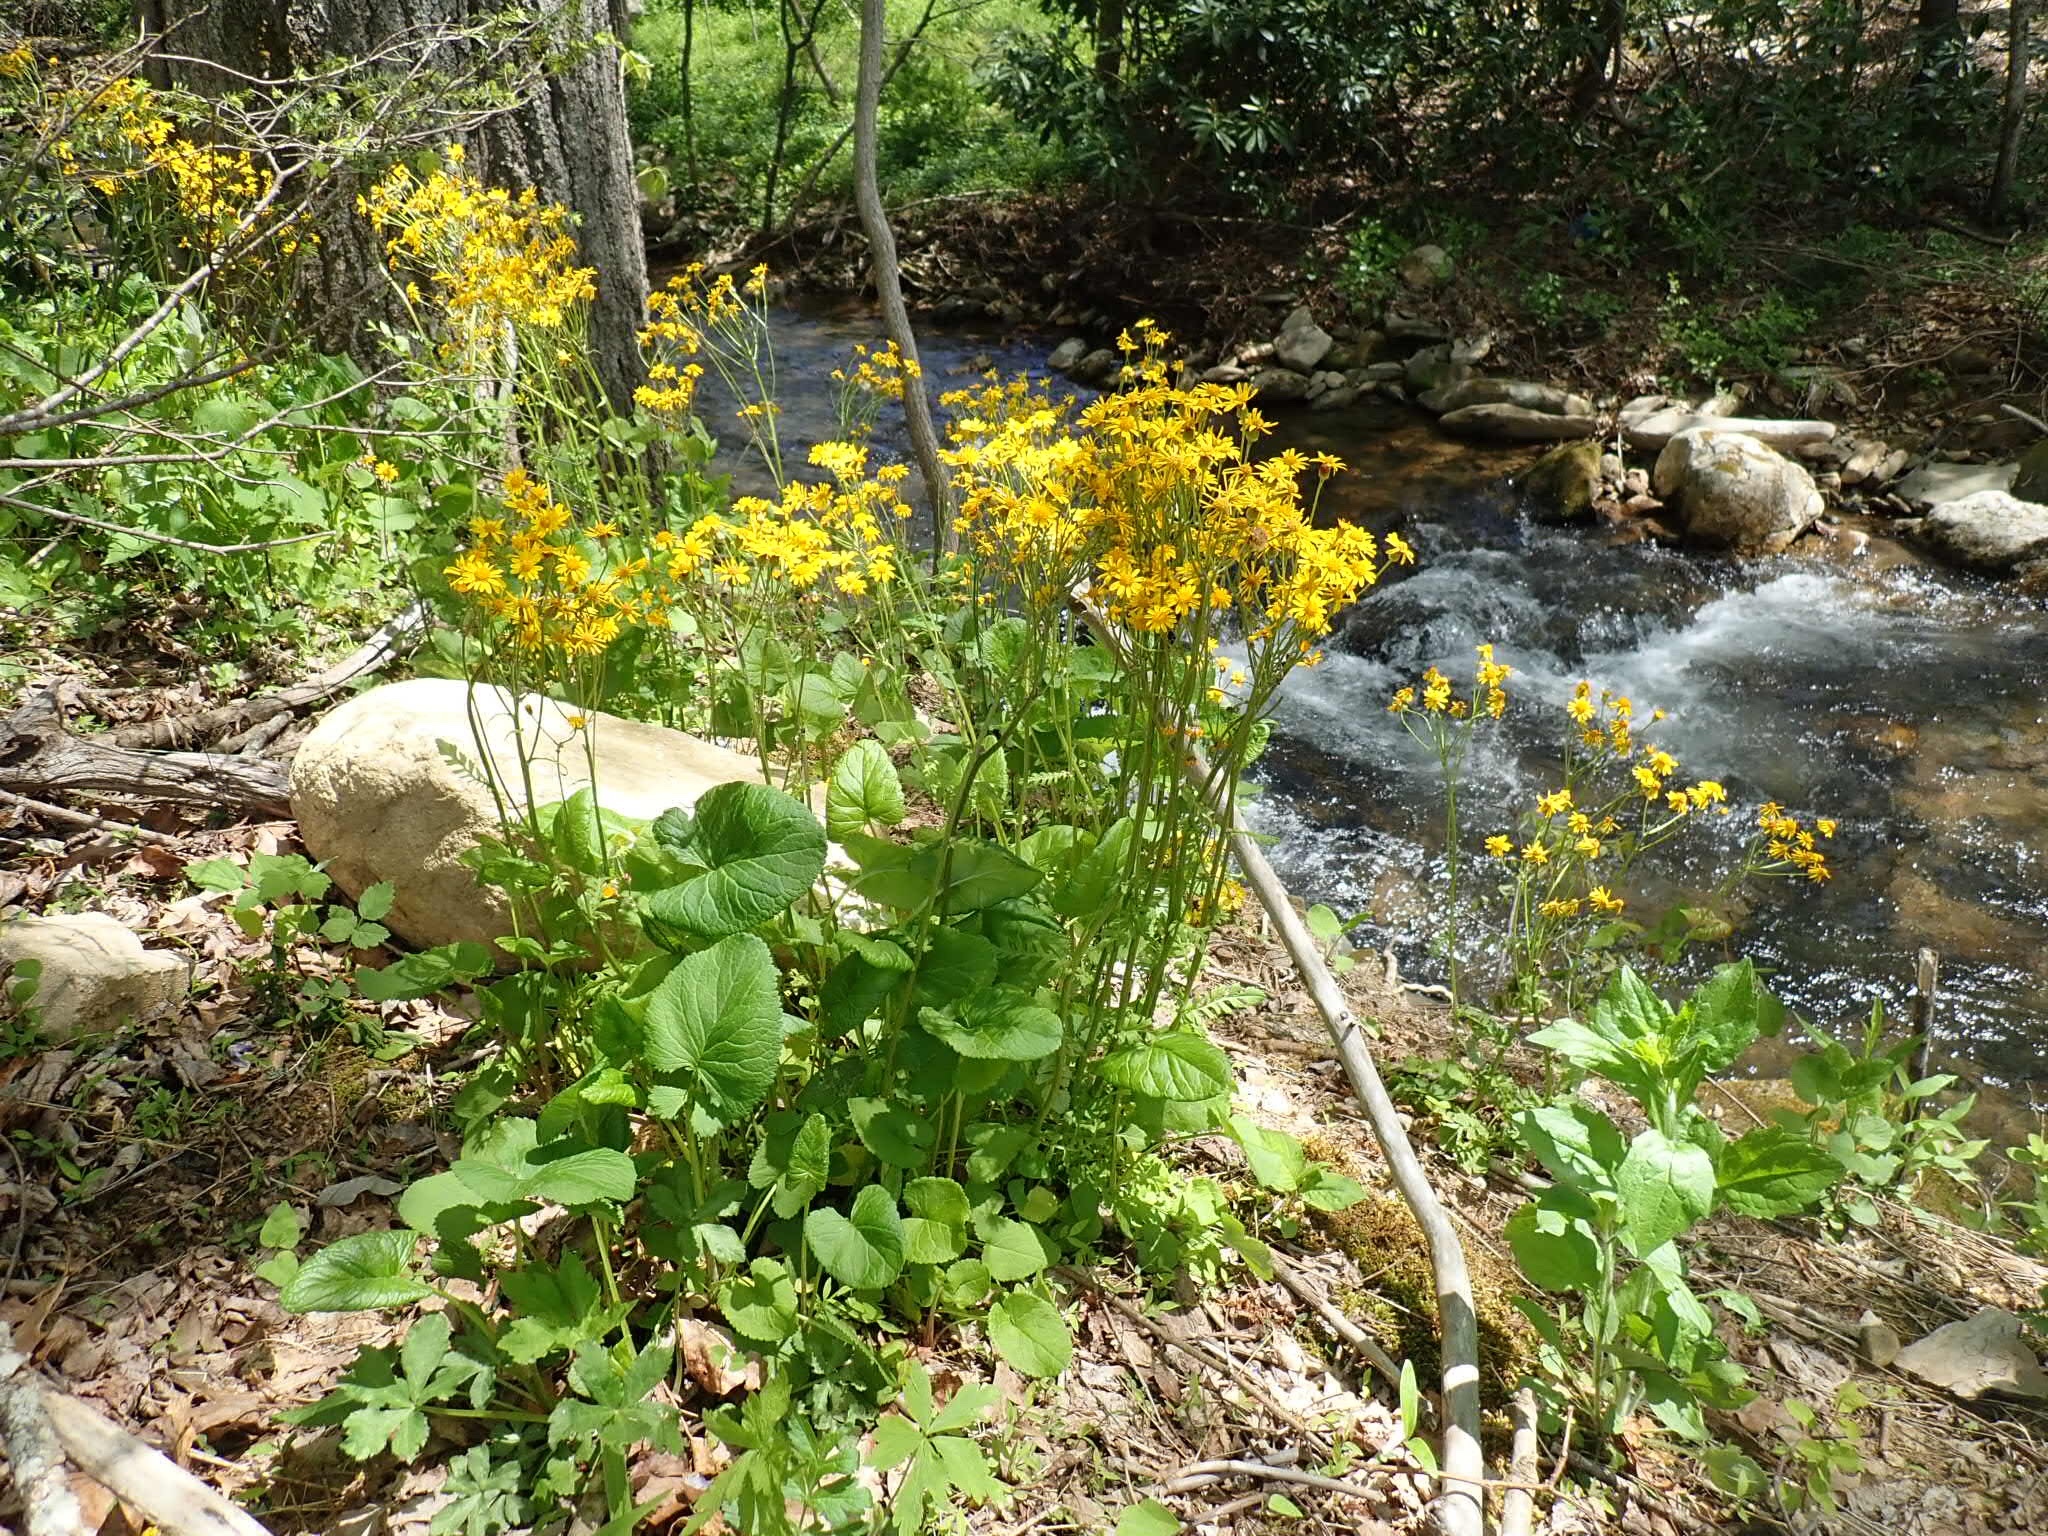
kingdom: Plantae
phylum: Tracheophyta
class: Magnoliopsida
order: Asterales
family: Asteraceae
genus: Packera
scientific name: Packera aurea
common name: Golden groundsel
